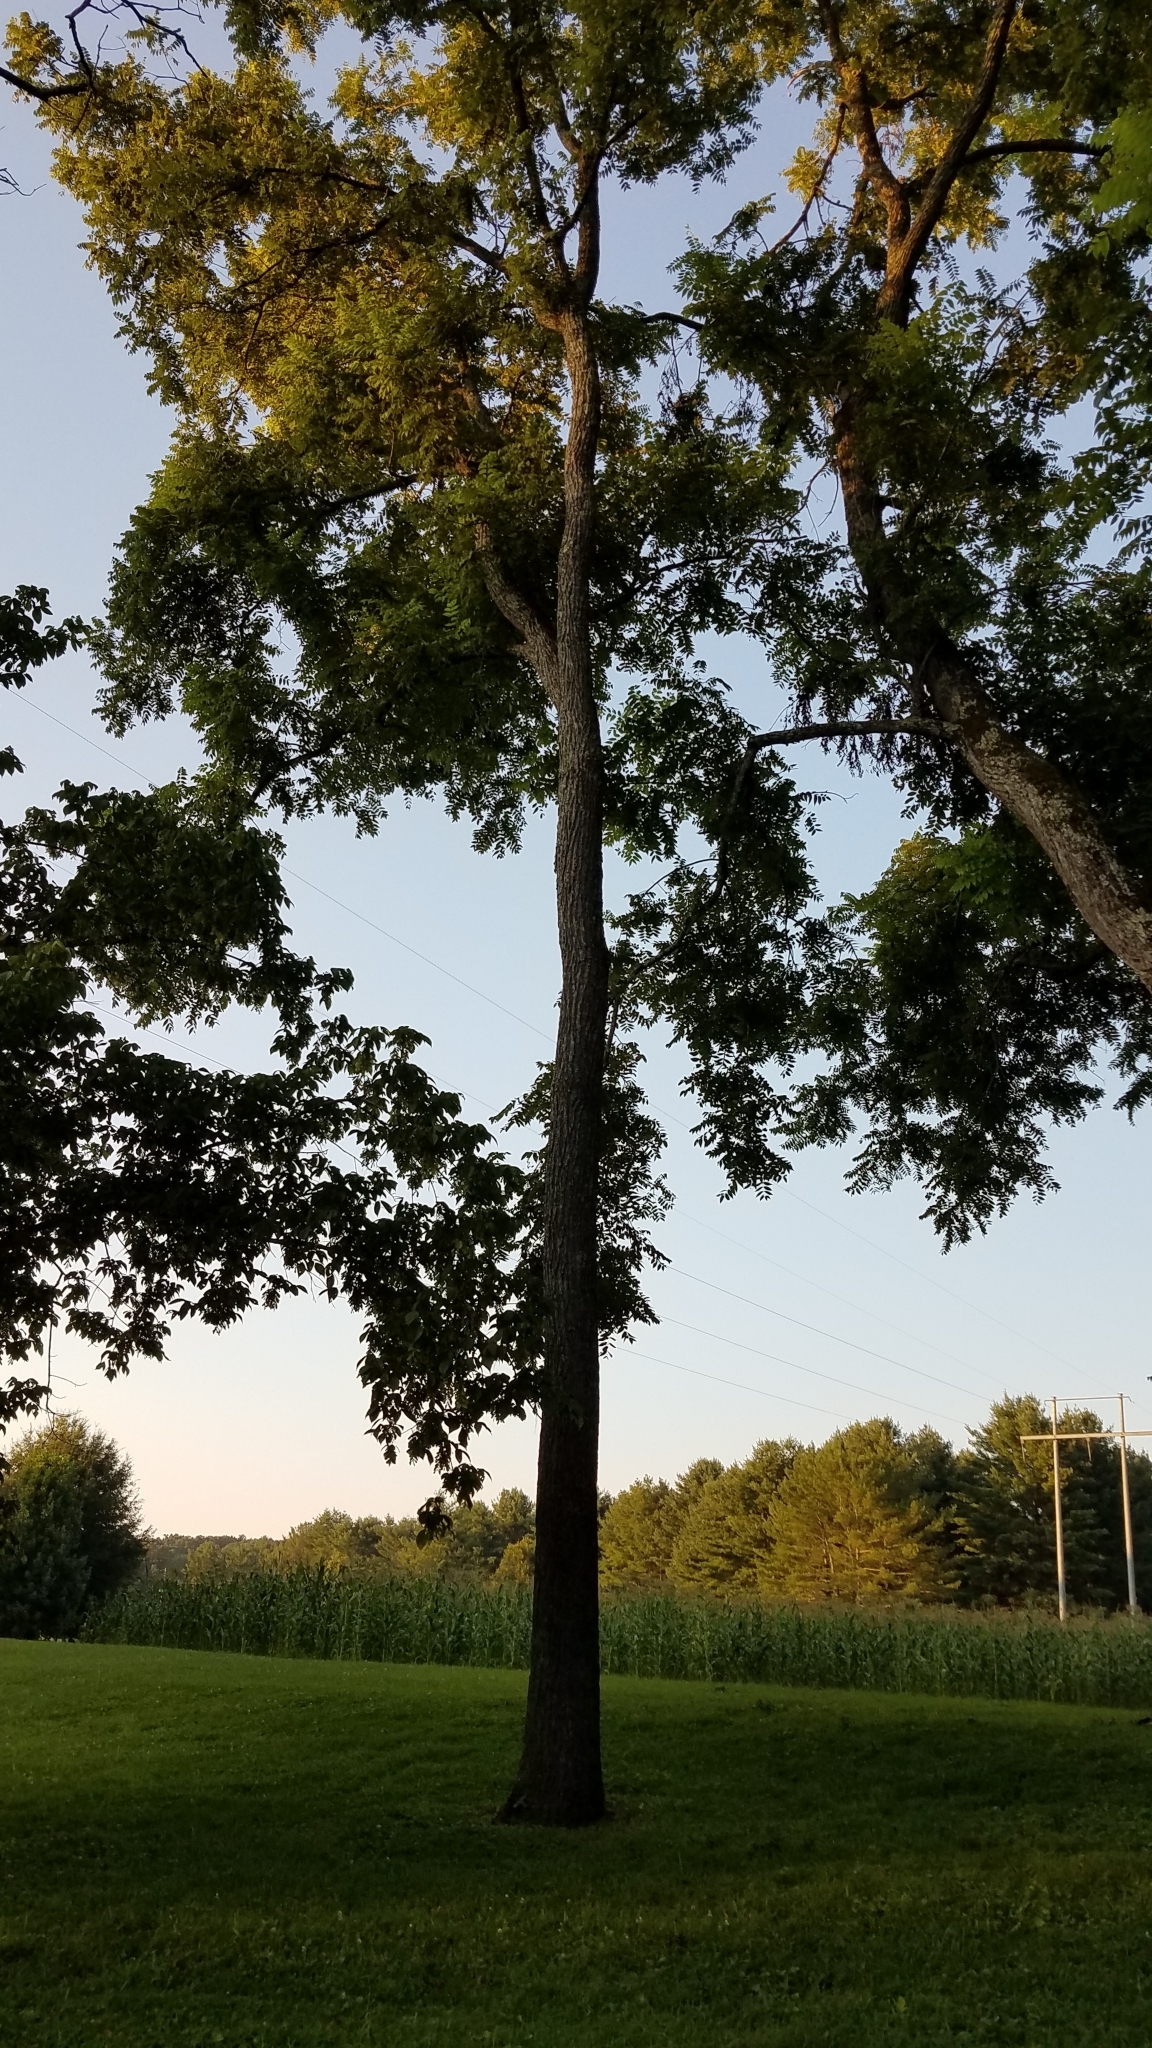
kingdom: Plantae
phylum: Tracheophyta
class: Magnoliopsida
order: Fagales
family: Juglandaceae
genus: Juglans
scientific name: Juglans nigra
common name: Black walnut
